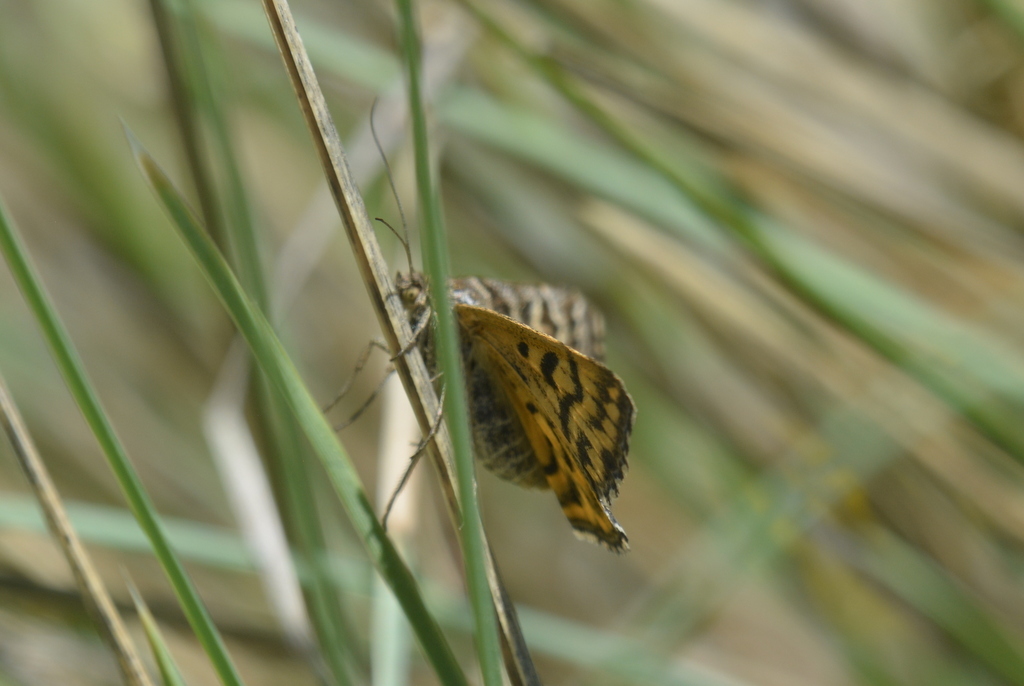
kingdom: Animalia
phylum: Arthropoda
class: Insecta
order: Lepidoptera
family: Erebidae
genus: Callistege
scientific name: Callistege mi
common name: Mother shipton
